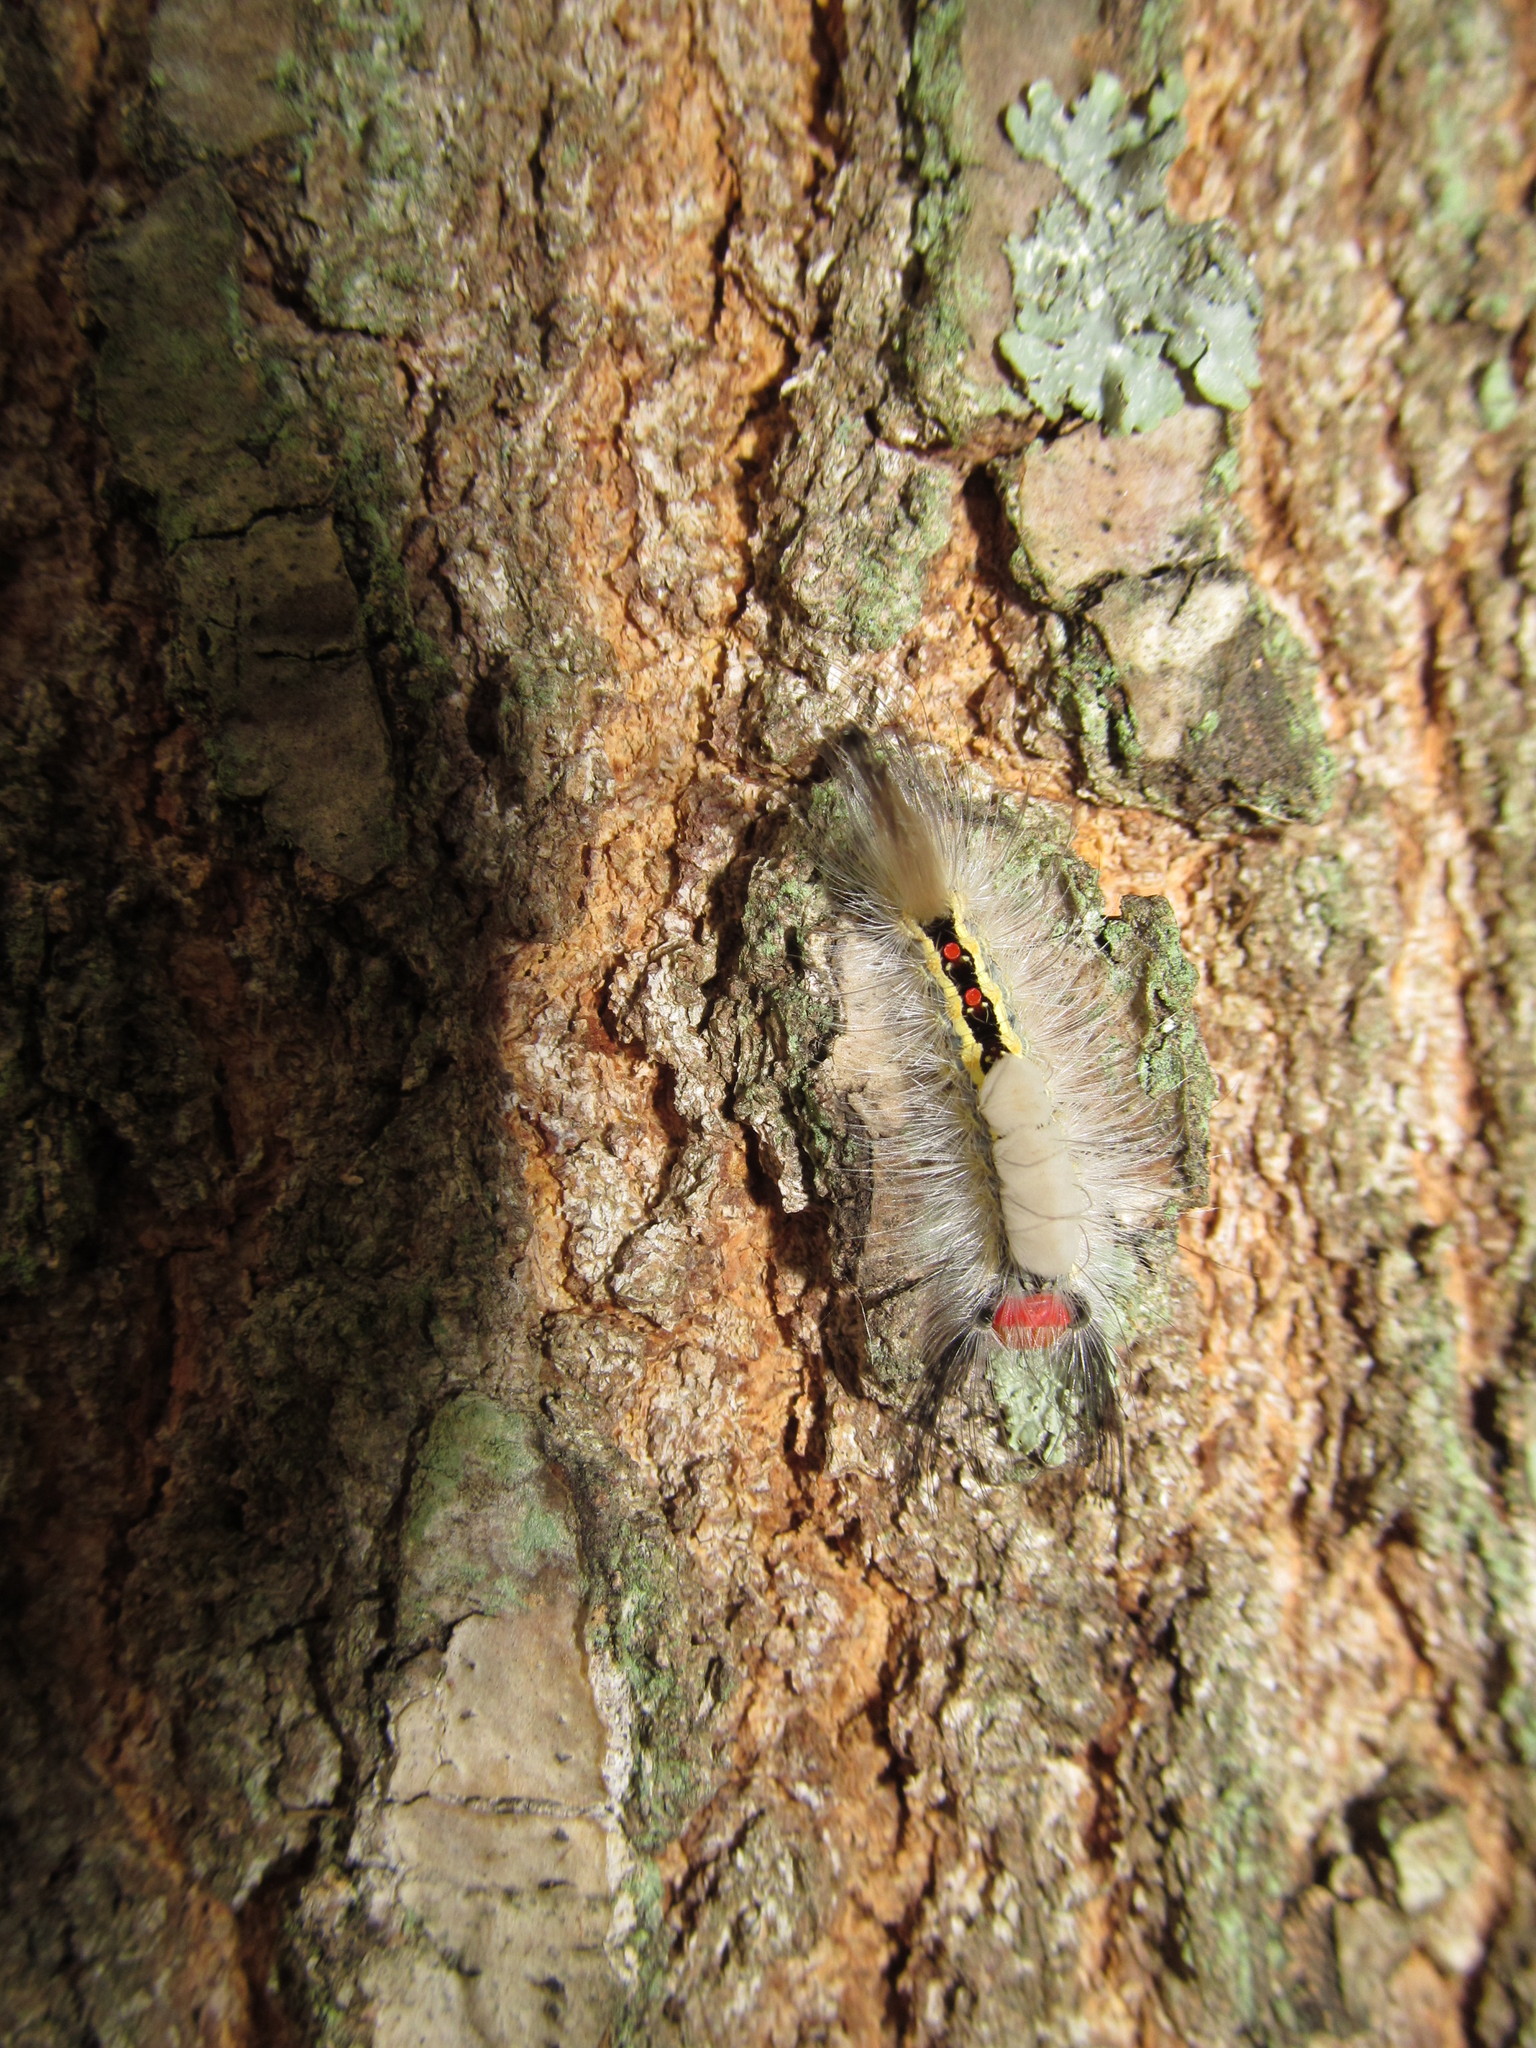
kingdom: Animalia
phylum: Arthropoda
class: Insecta
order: Lepidoptera
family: Erebidae
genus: Orgyia
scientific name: Orgyia leucostigma
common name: White-marked tussock moth
